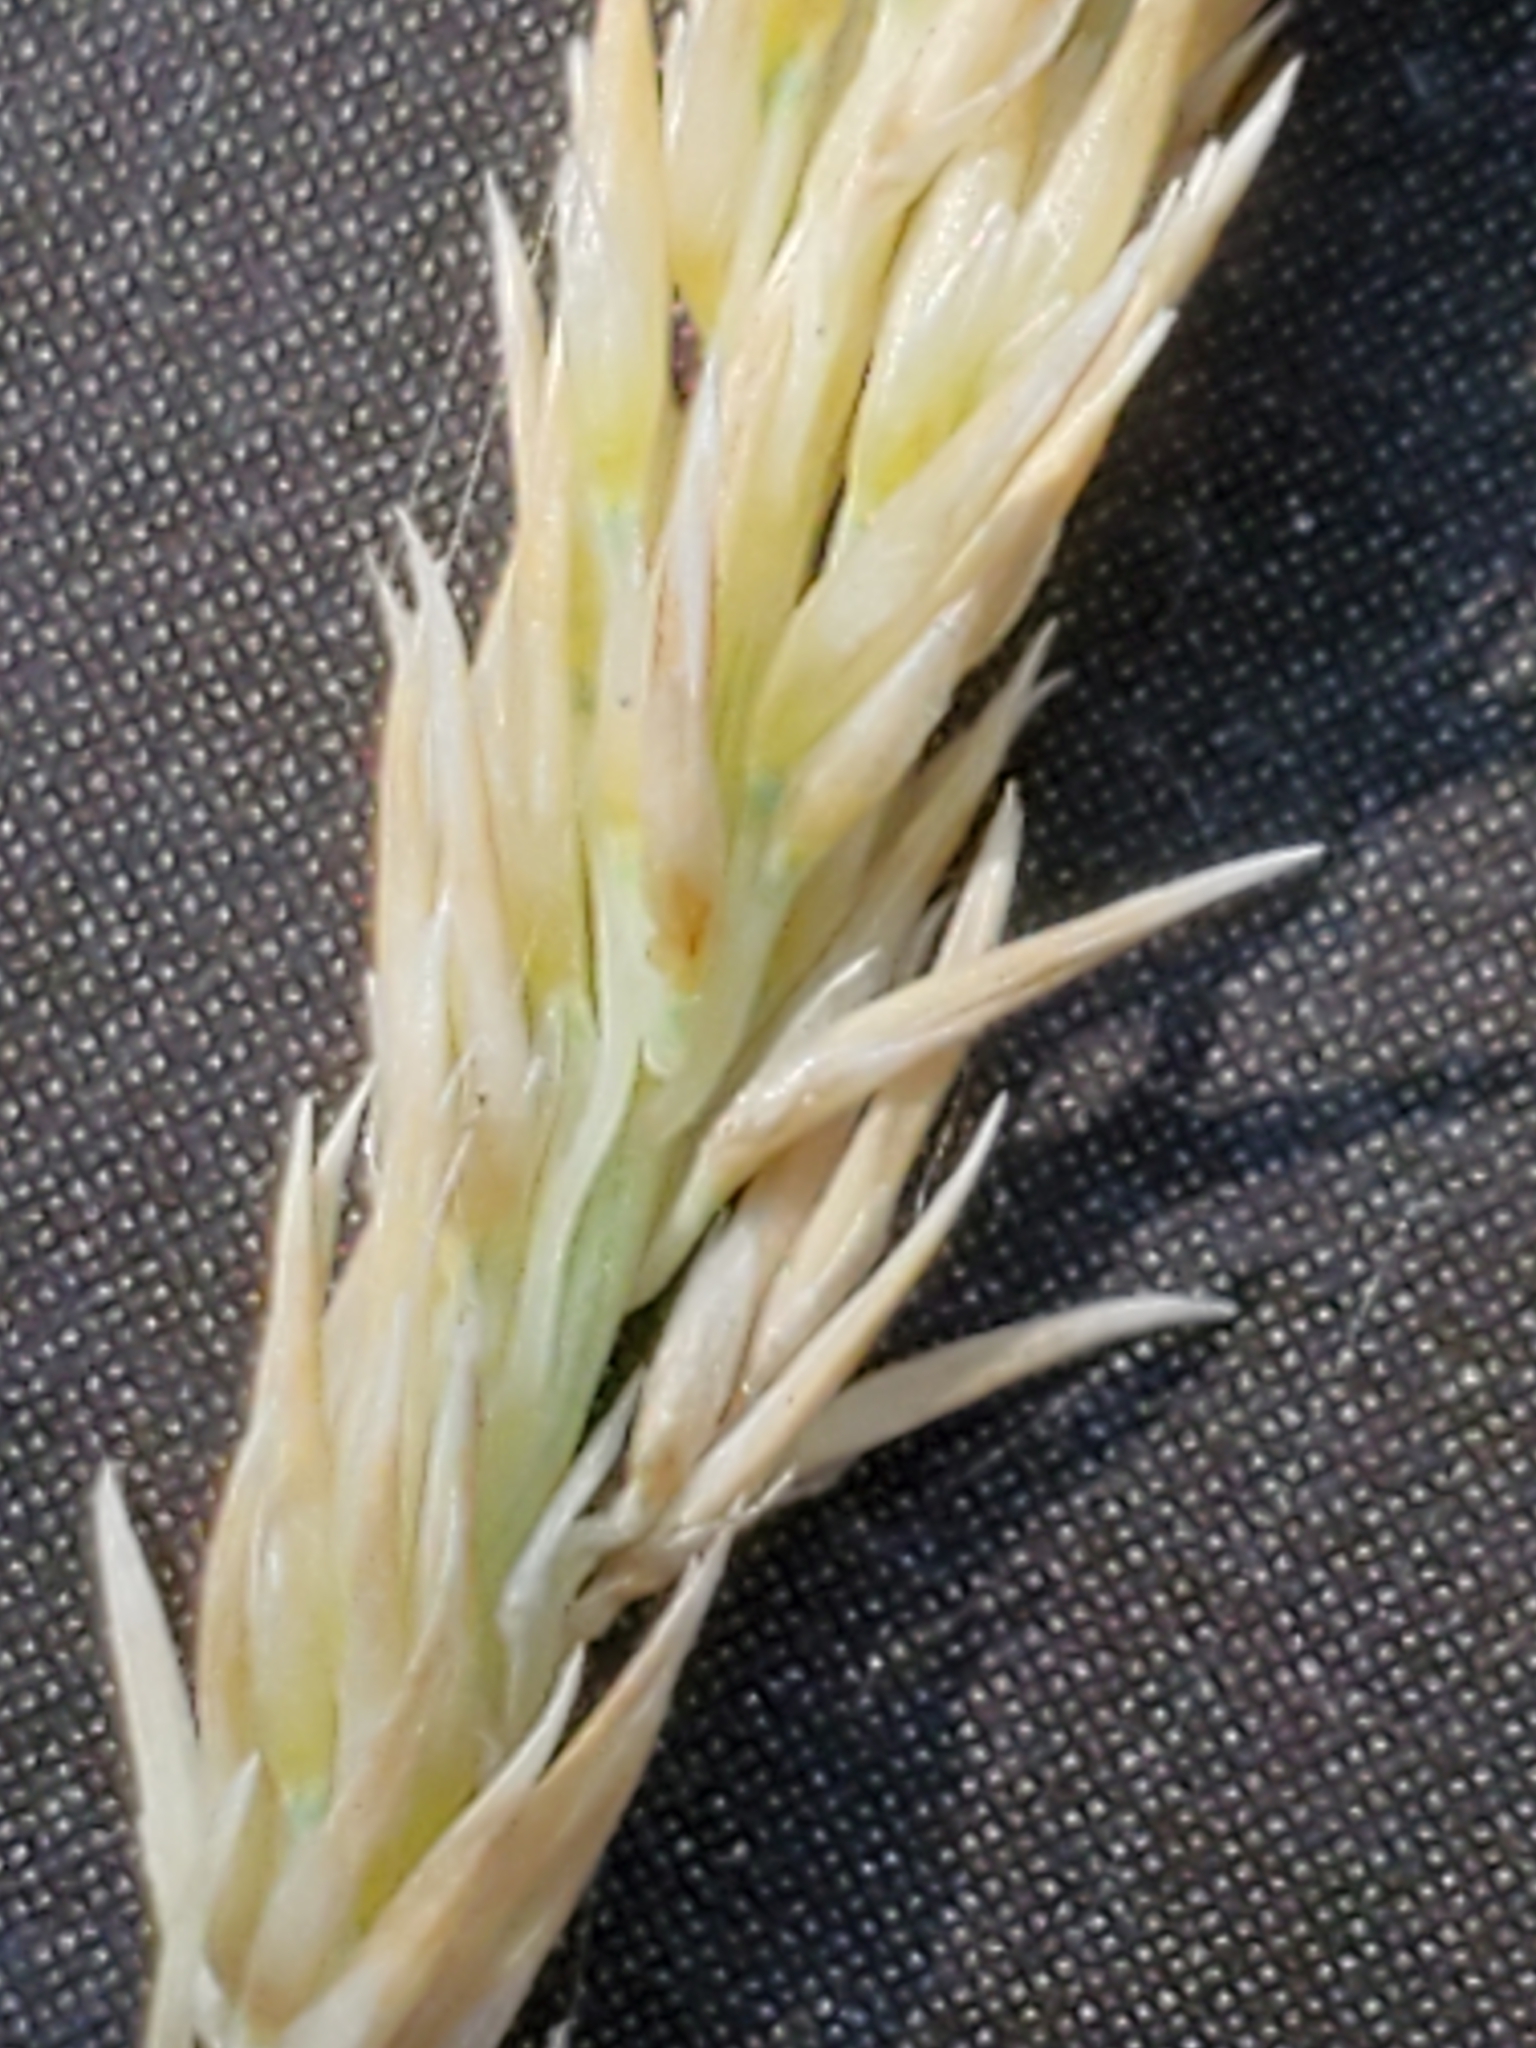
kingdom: Plantae
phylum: Tracheophyta
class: Liliopsida
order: Poales
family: Poaceae
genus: Muhlenbergia
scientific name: Muhlenbergia rigens
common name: Deer grass
